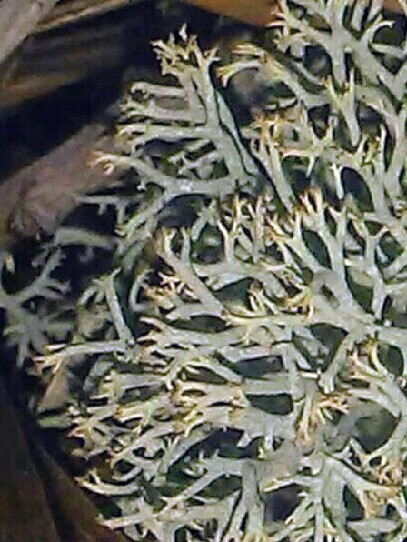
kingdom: Fungi
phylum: Ascomycota
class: Lecanoromycetes
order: Lecanorales
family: Cladoniaceae
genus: Cladonia
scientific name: Cladonia subtenuis
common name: Dixie reindeer lichen
